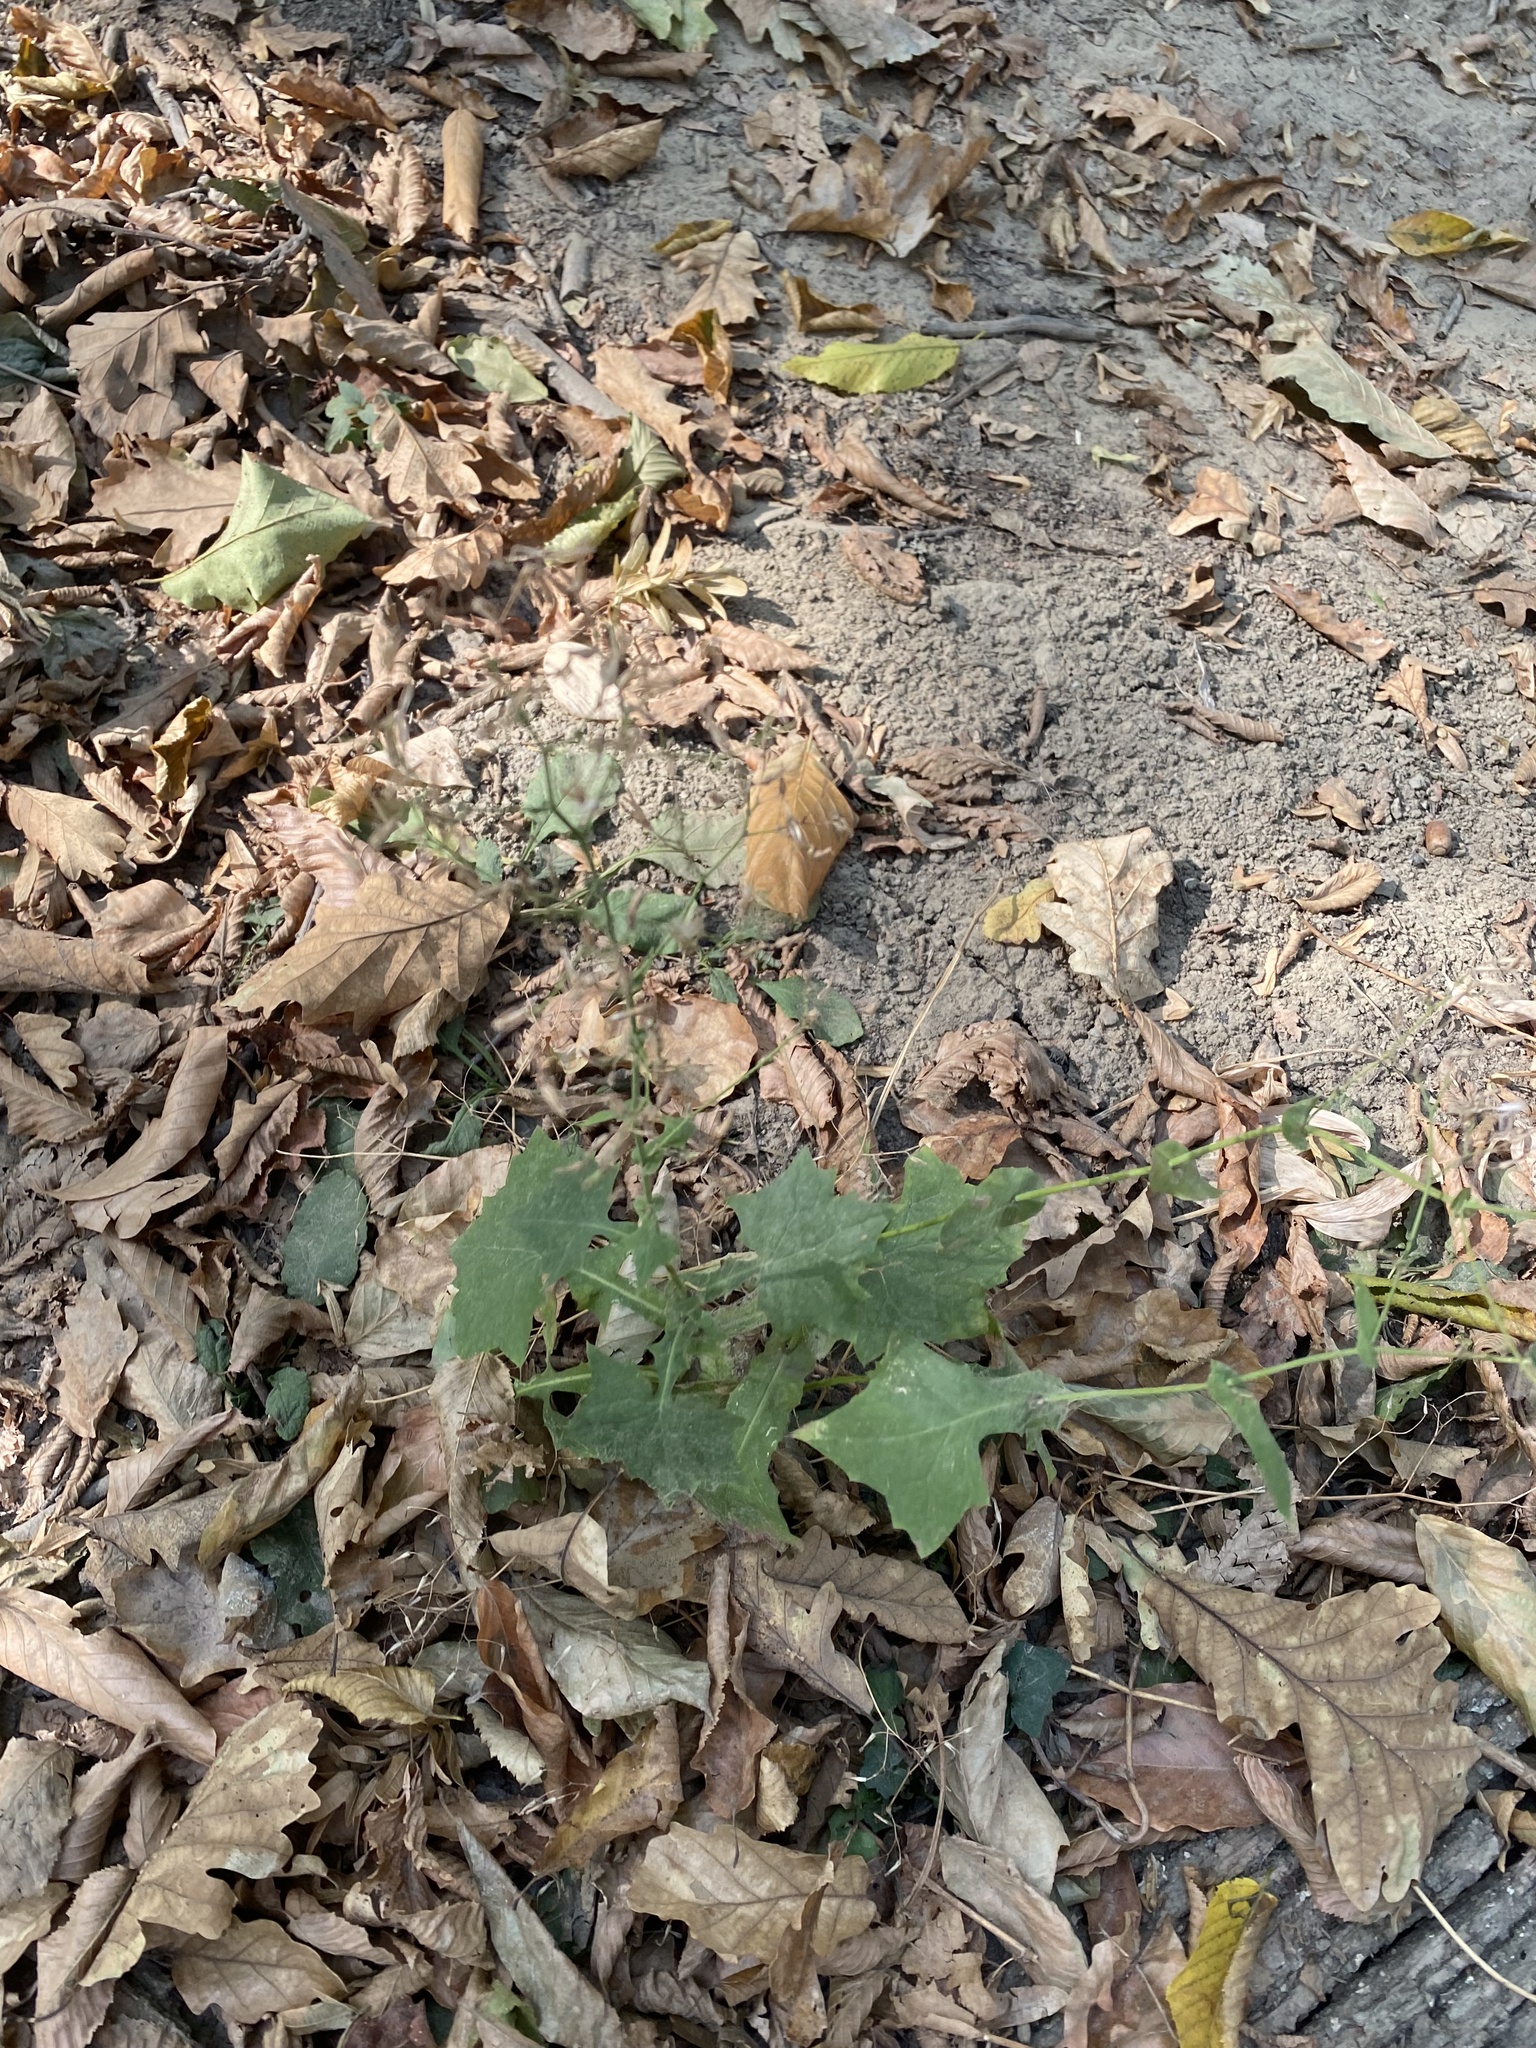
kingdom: Plantae
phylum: Tracheophyta
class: Magnoliopsida
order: Asterales
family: Asteraceae
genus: Mycelis
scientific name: Mycelis muralis
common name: Wall lettuce
